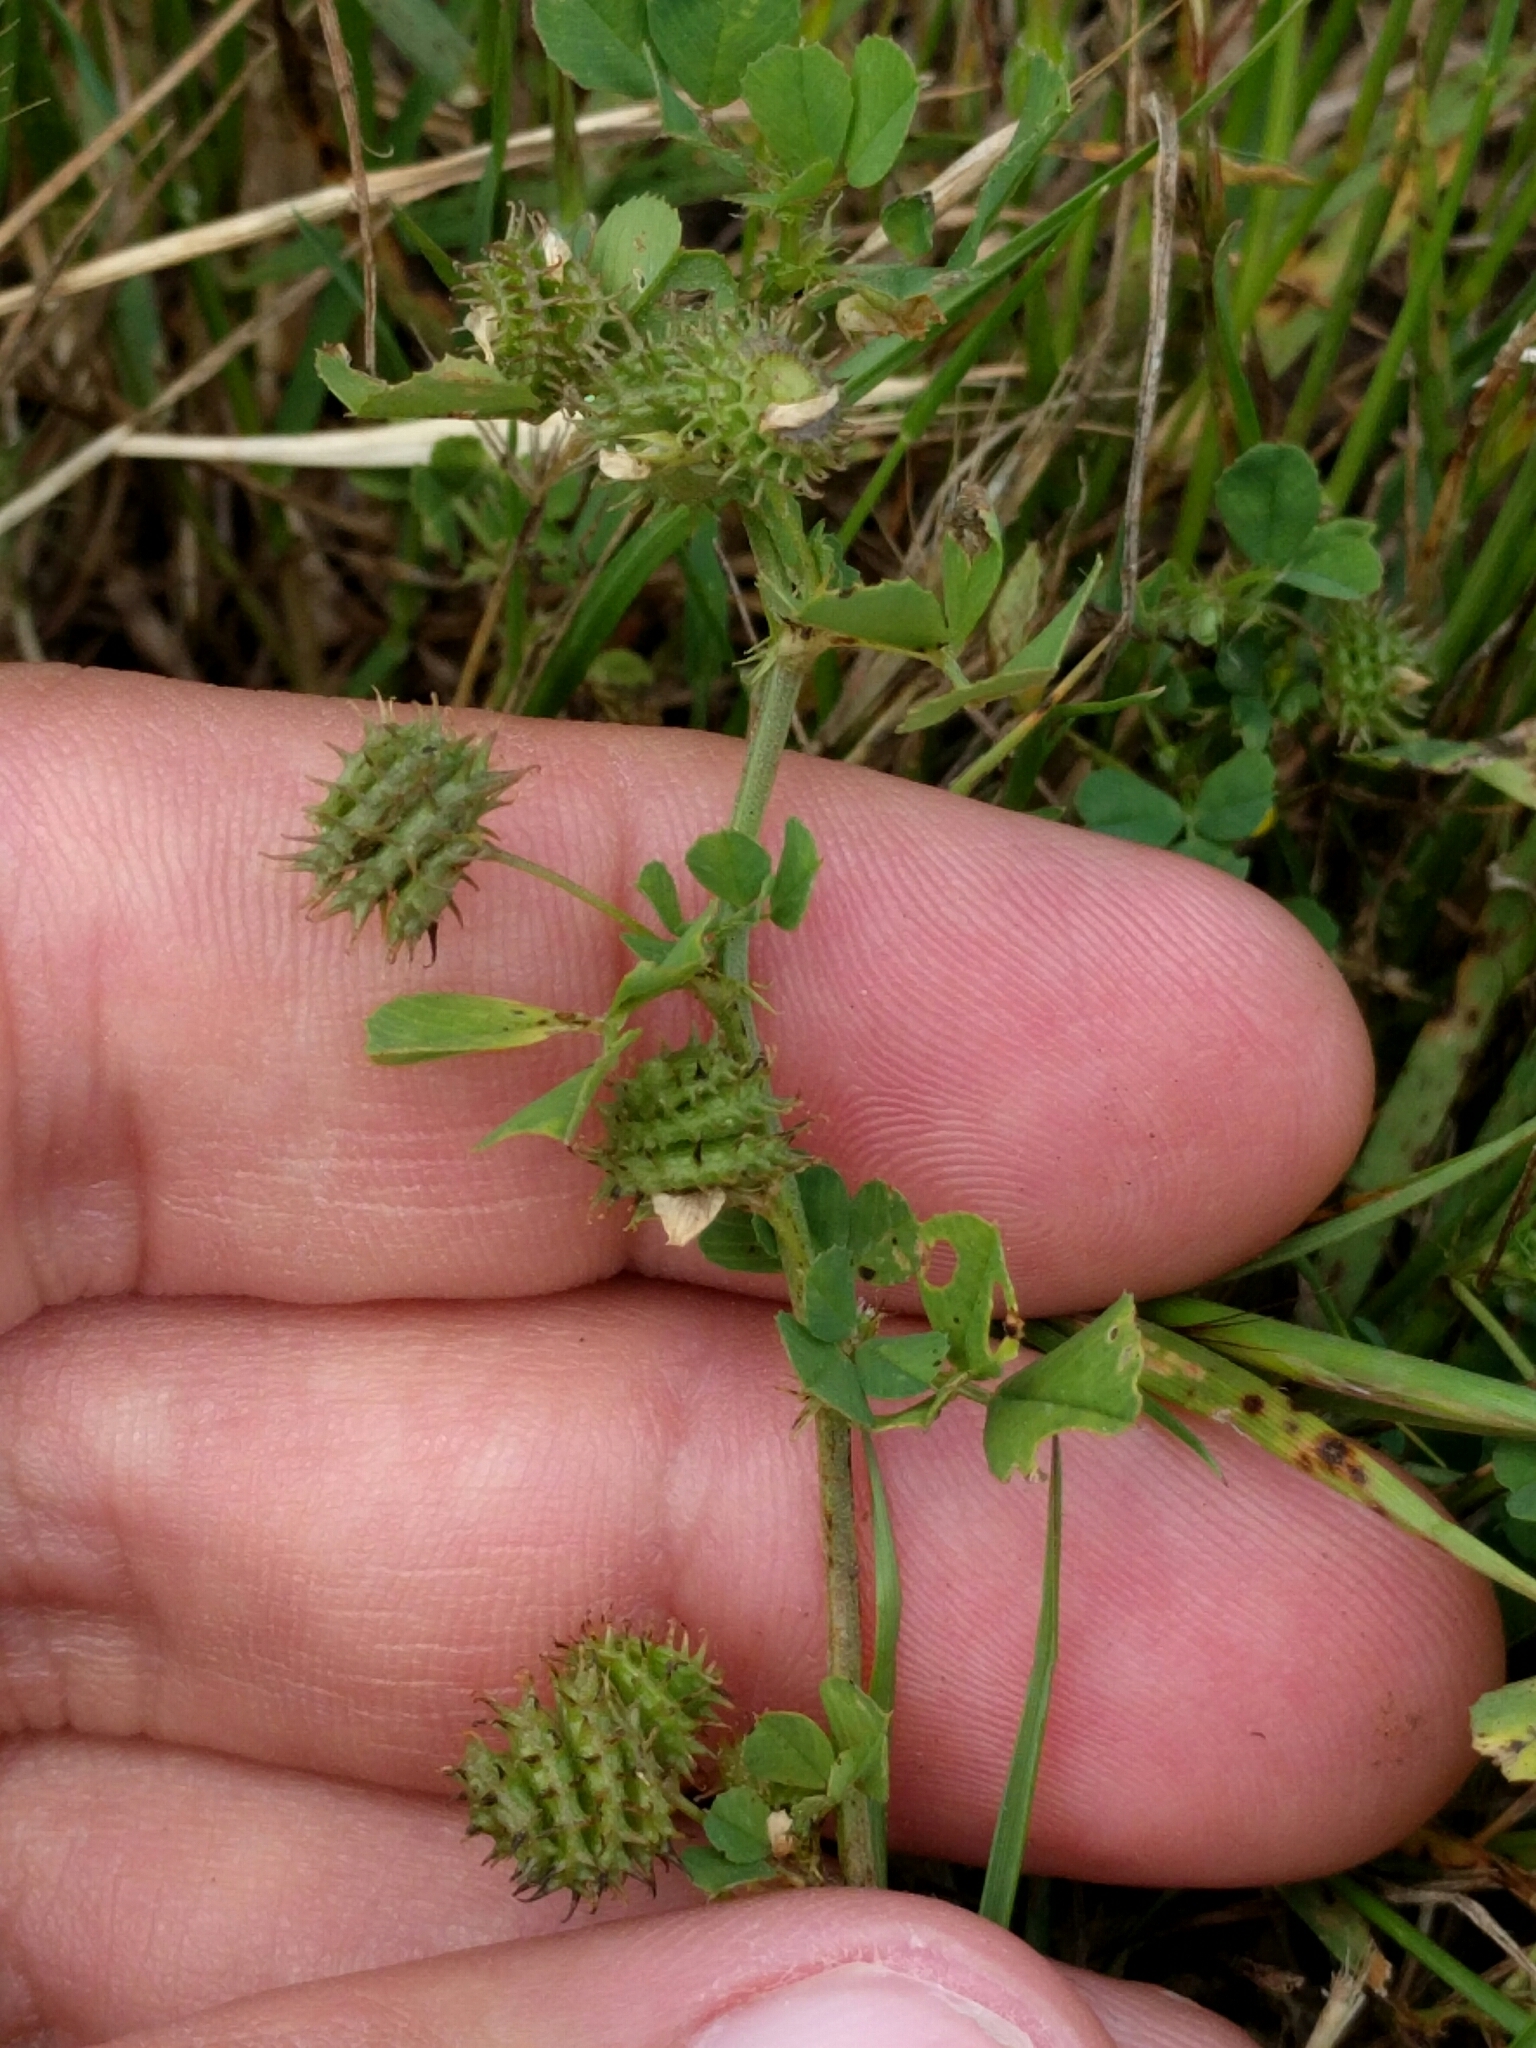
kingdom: Plantae
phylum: Tracheophyta
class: Magnoliopsida
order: Fabales
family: Fabaceae
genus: Medicago
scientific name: Medicago polymorpha
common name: Burclover
